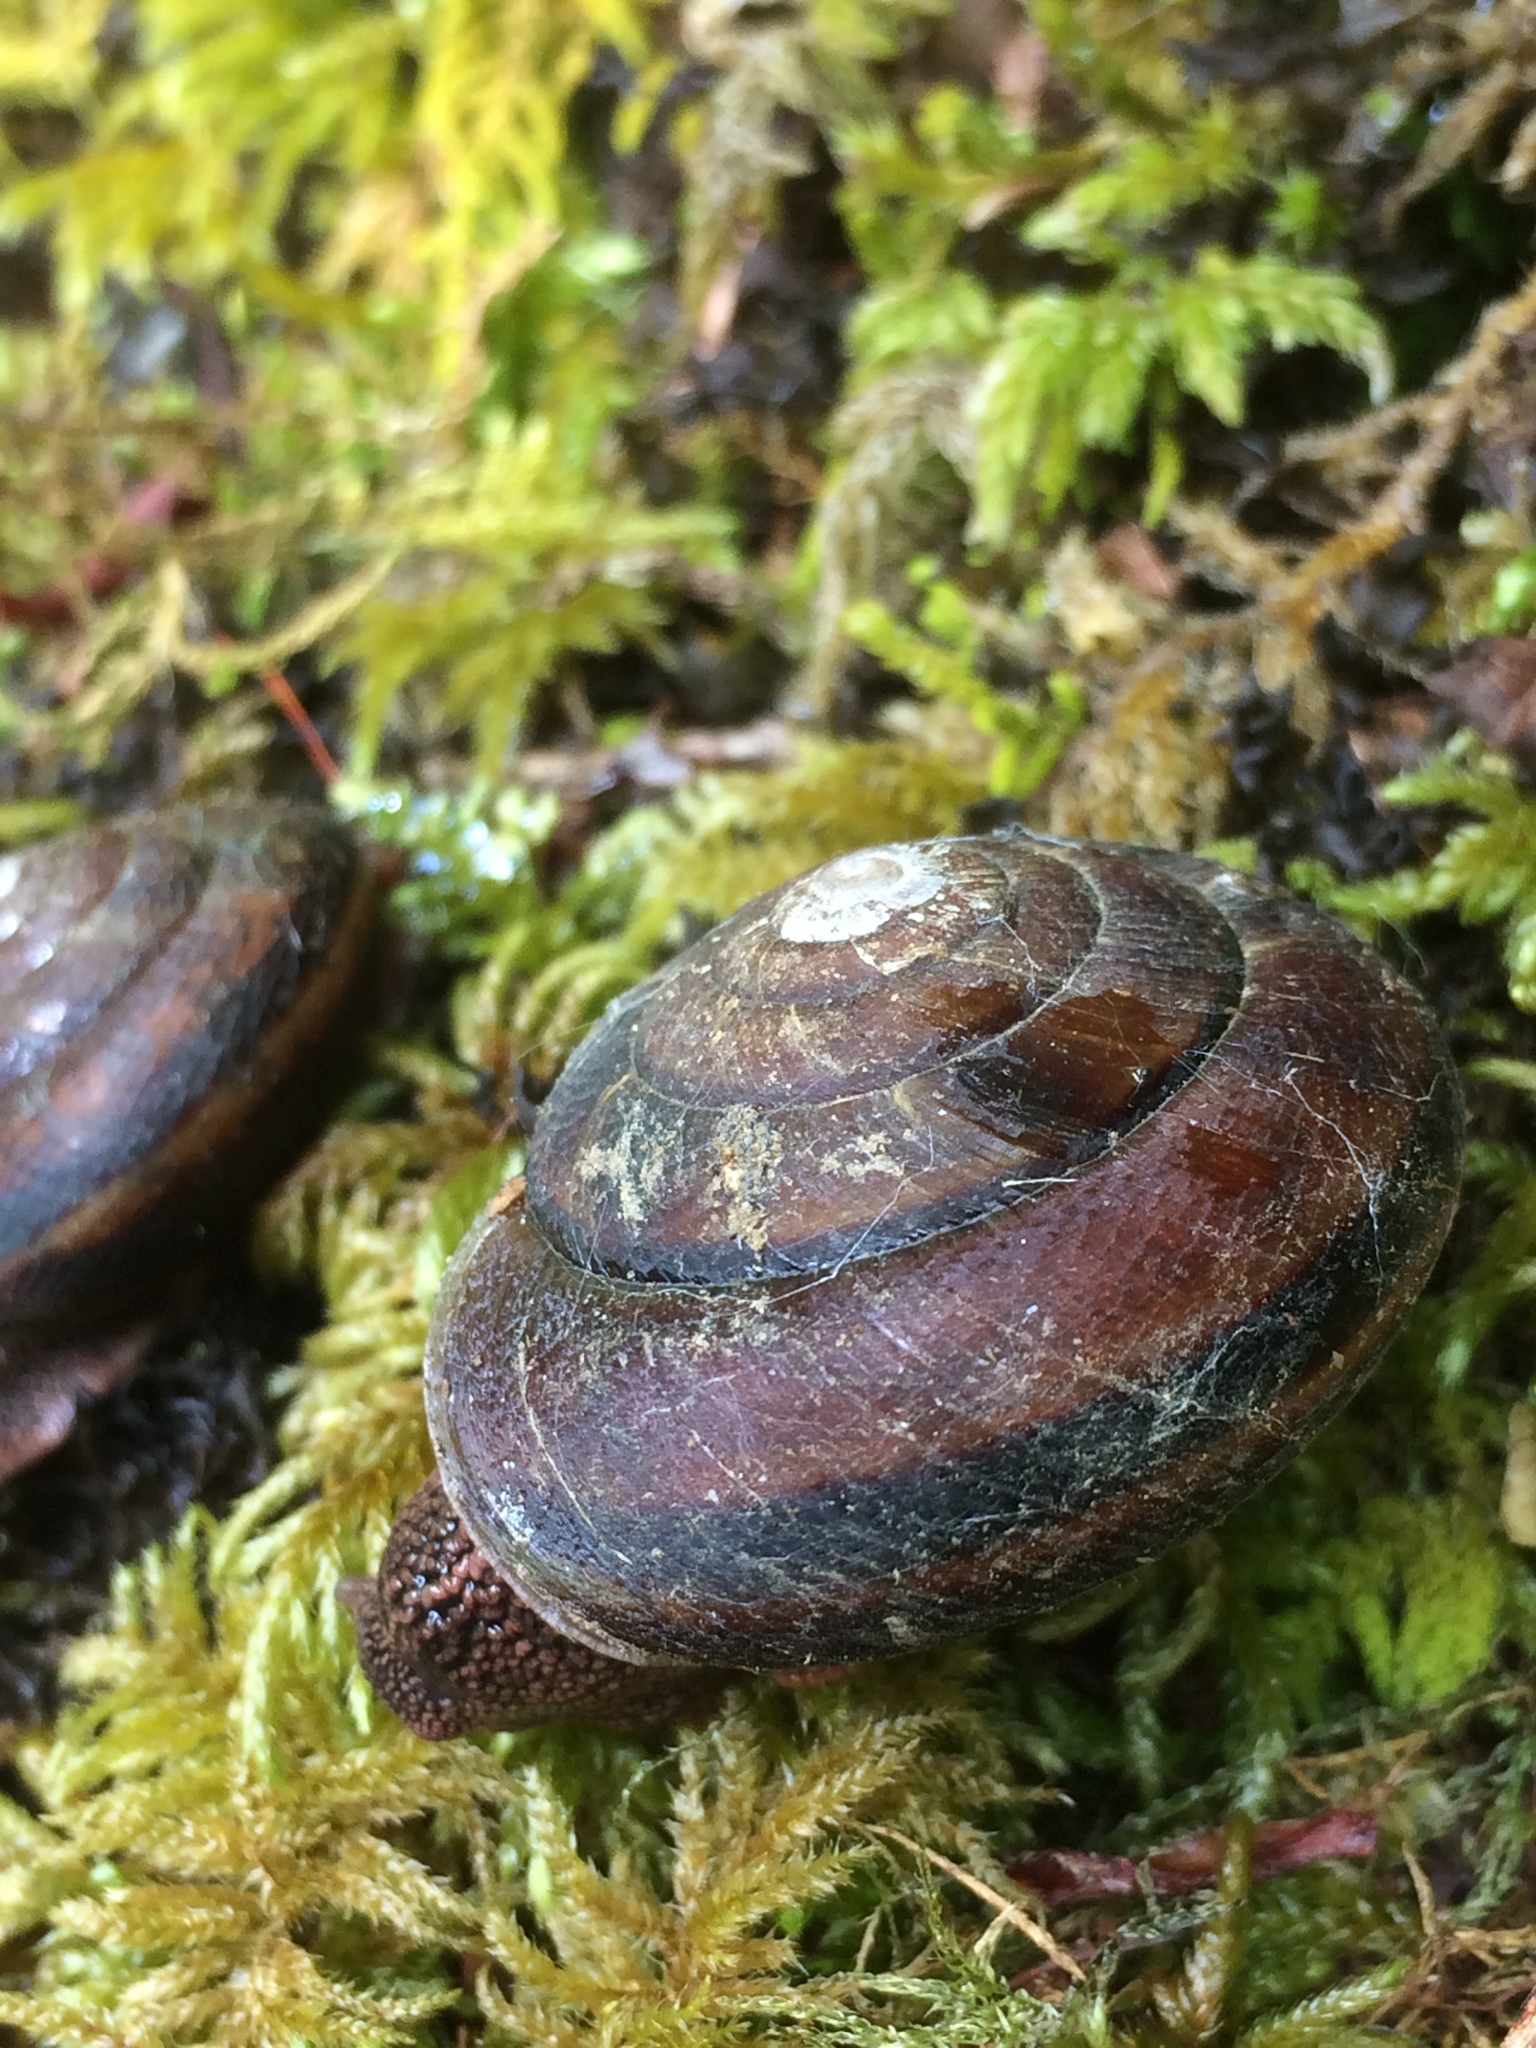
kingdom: Animalia
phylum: Mollusca
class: Gastropoda
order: Stylommatophora
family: Xanthonychidae
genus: Monadenia
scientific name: Monadenia fidelis
